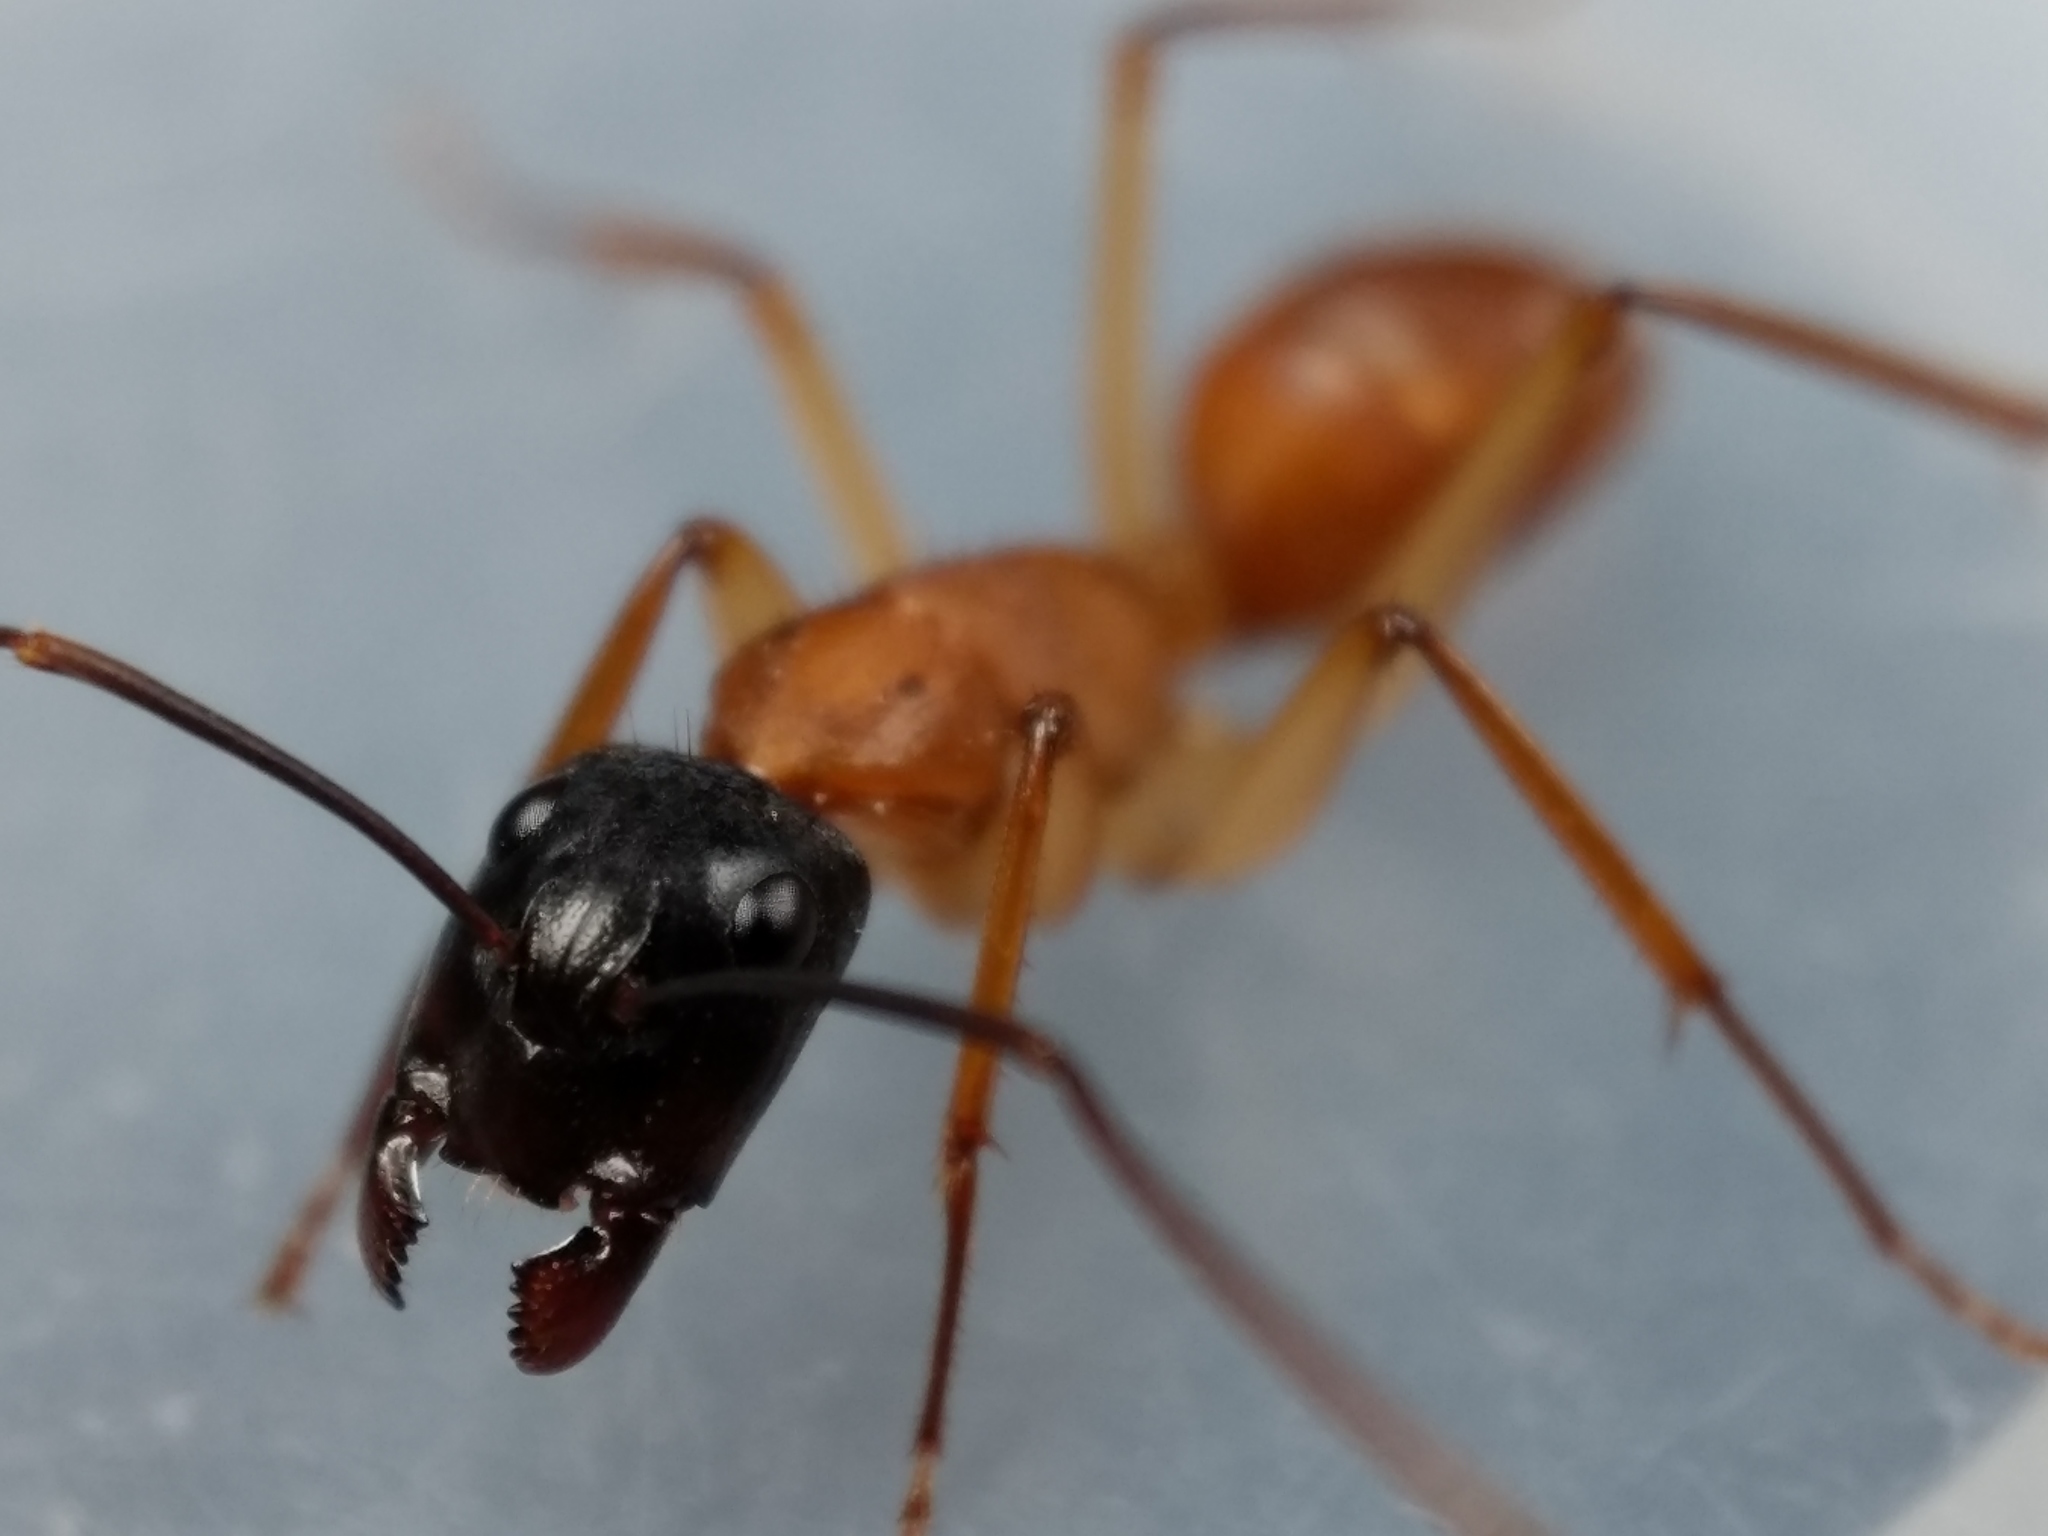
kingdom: Animalia
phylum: Arthropoda
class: Insecta
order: Hymenoptera
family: Formicidae
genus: Camponotus
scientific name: Camponotus eastwoodi
